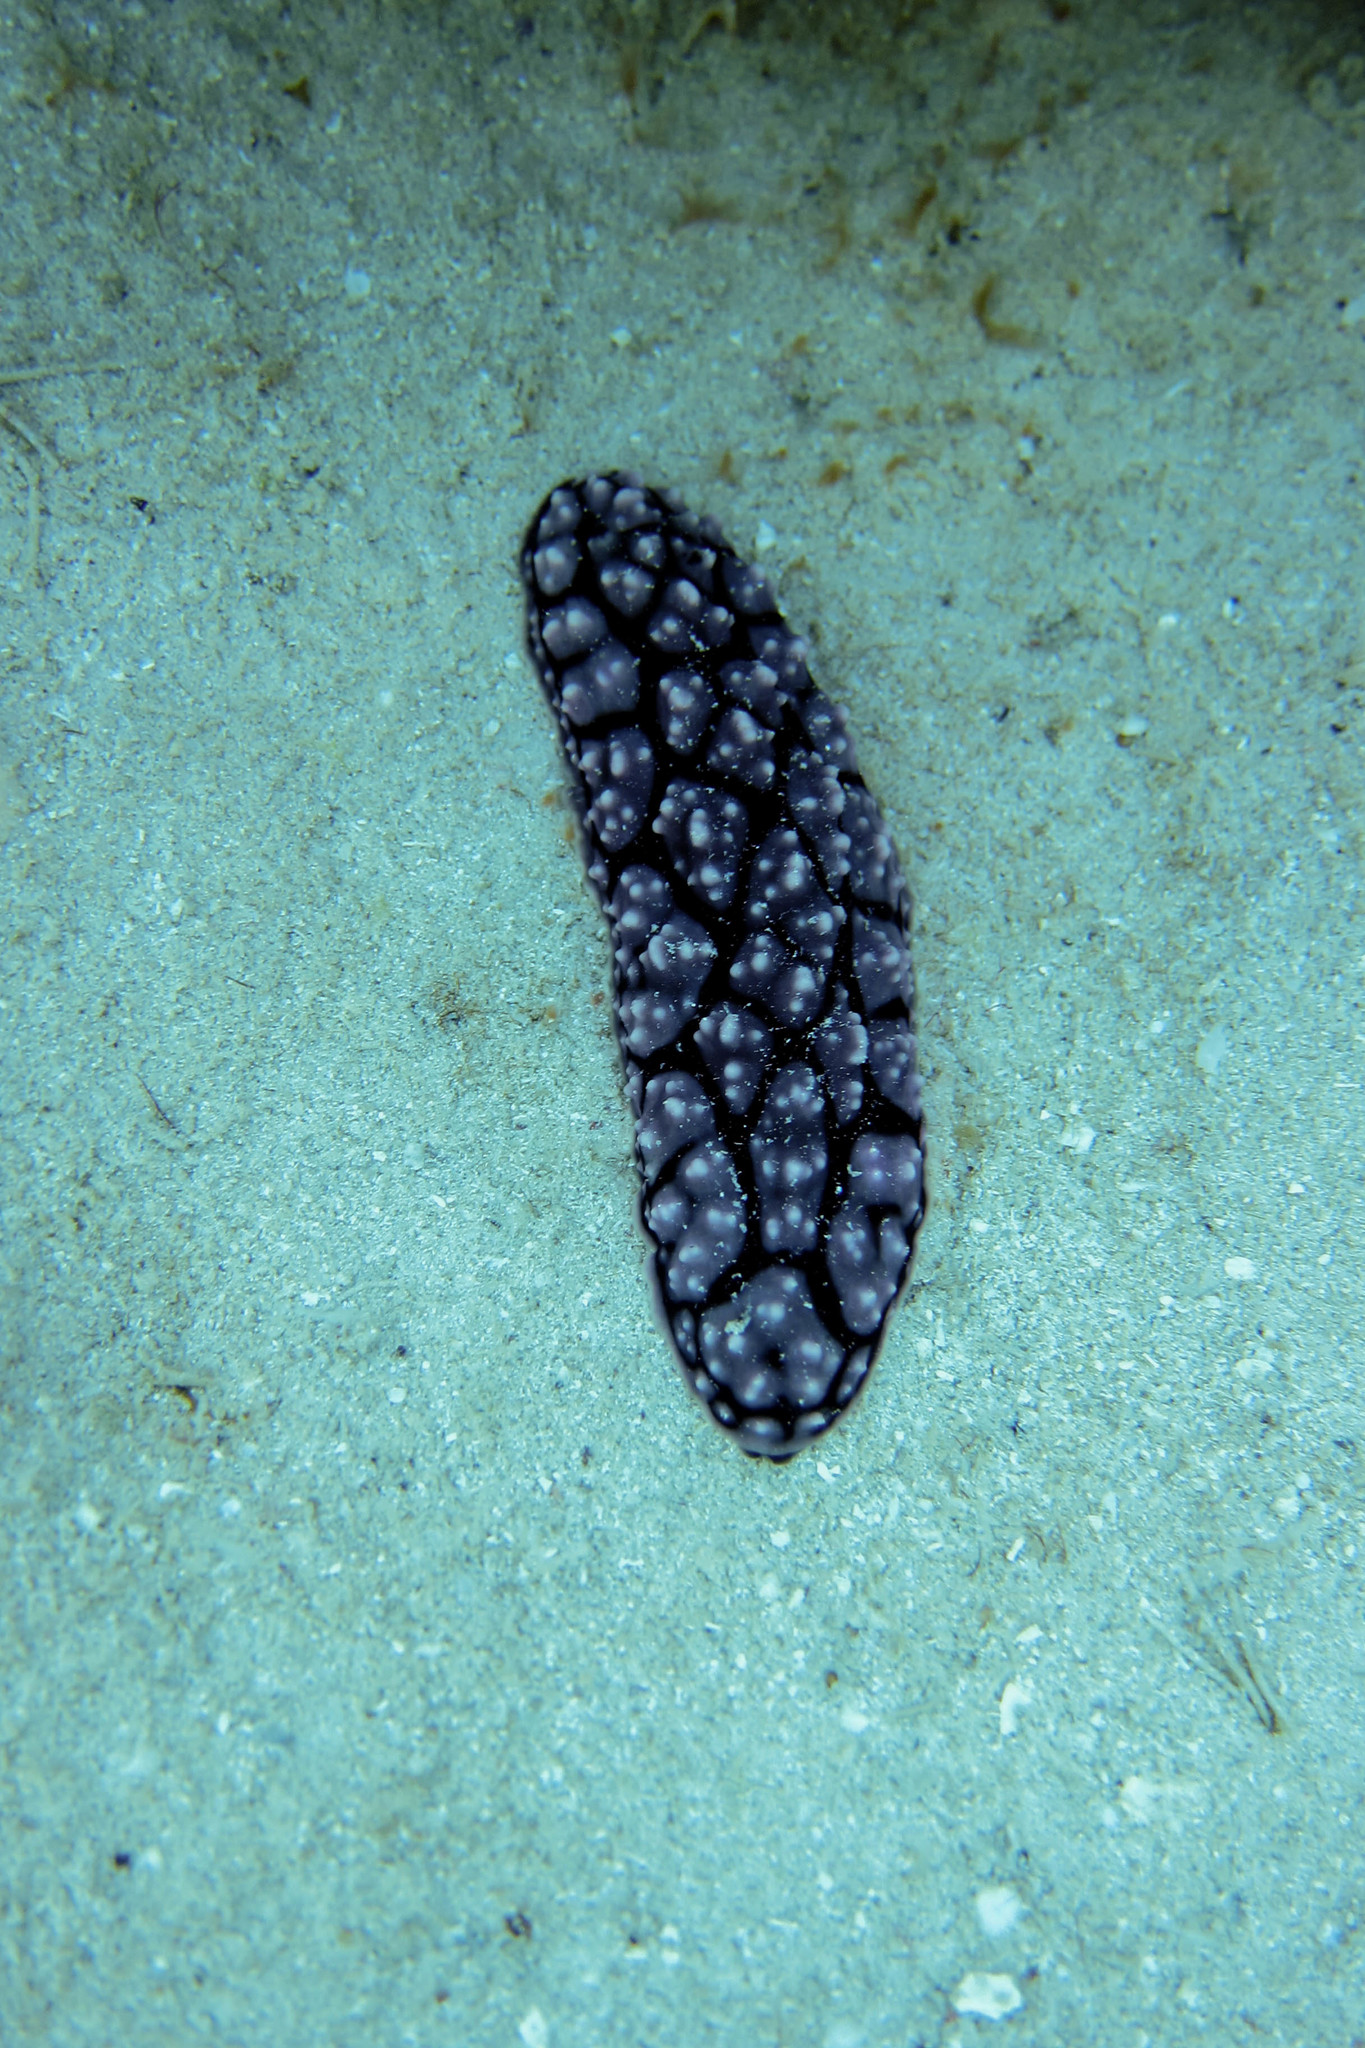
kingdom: Animalia
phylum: Mollusca
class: Gastropoda
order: Nudibranchia
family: Phyllidiidae
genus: Phyllidiella
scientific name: Phyllidiella pustulosa
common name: Pustular phyllidia
